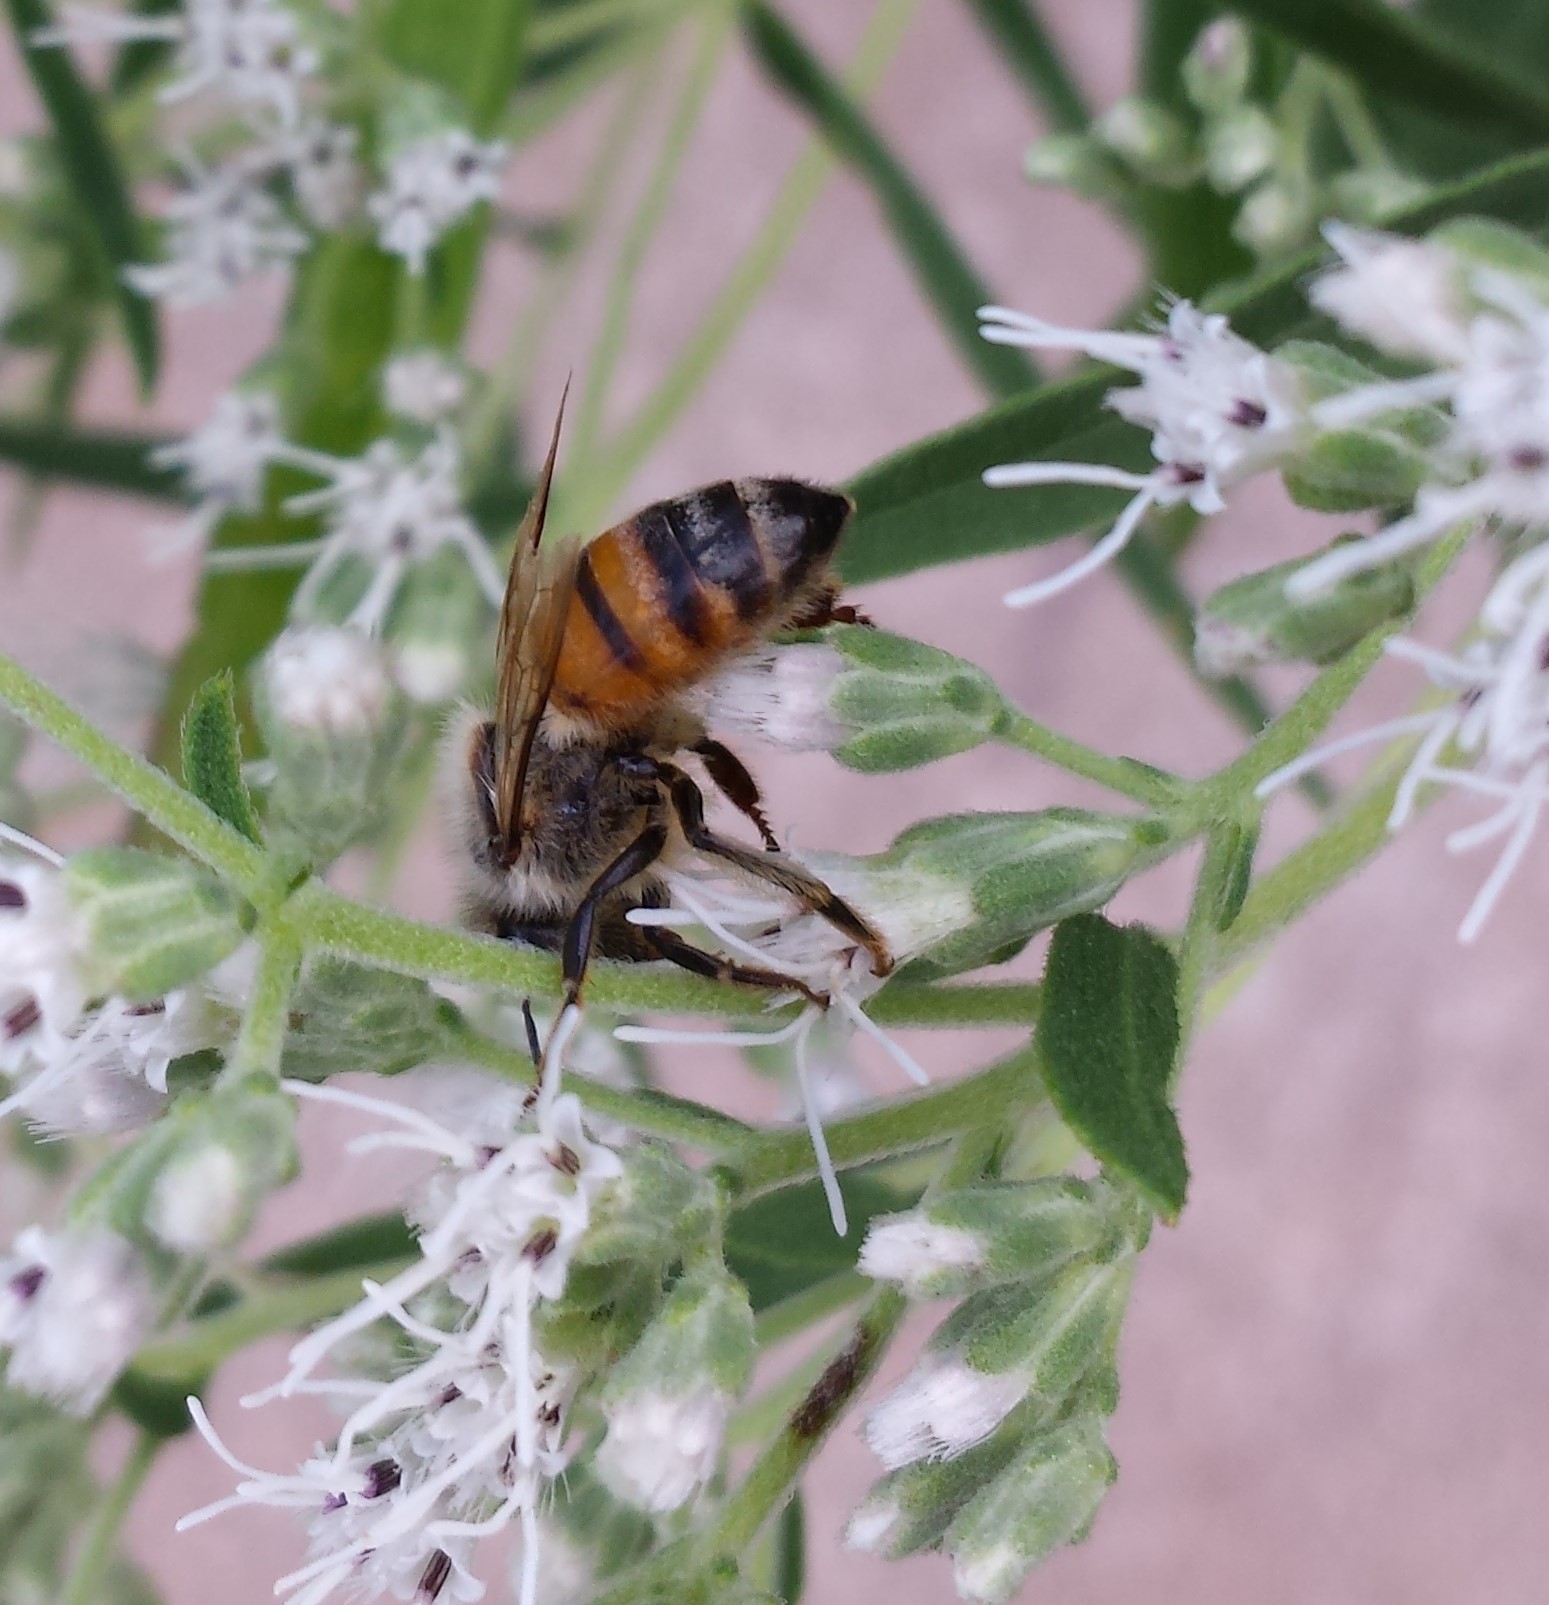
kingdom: Animalia
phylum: Arthropoda
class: Insecta
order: Hymenoptera
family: Apidae
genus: Apis
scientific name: Apis mellifera
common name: Honey bee
